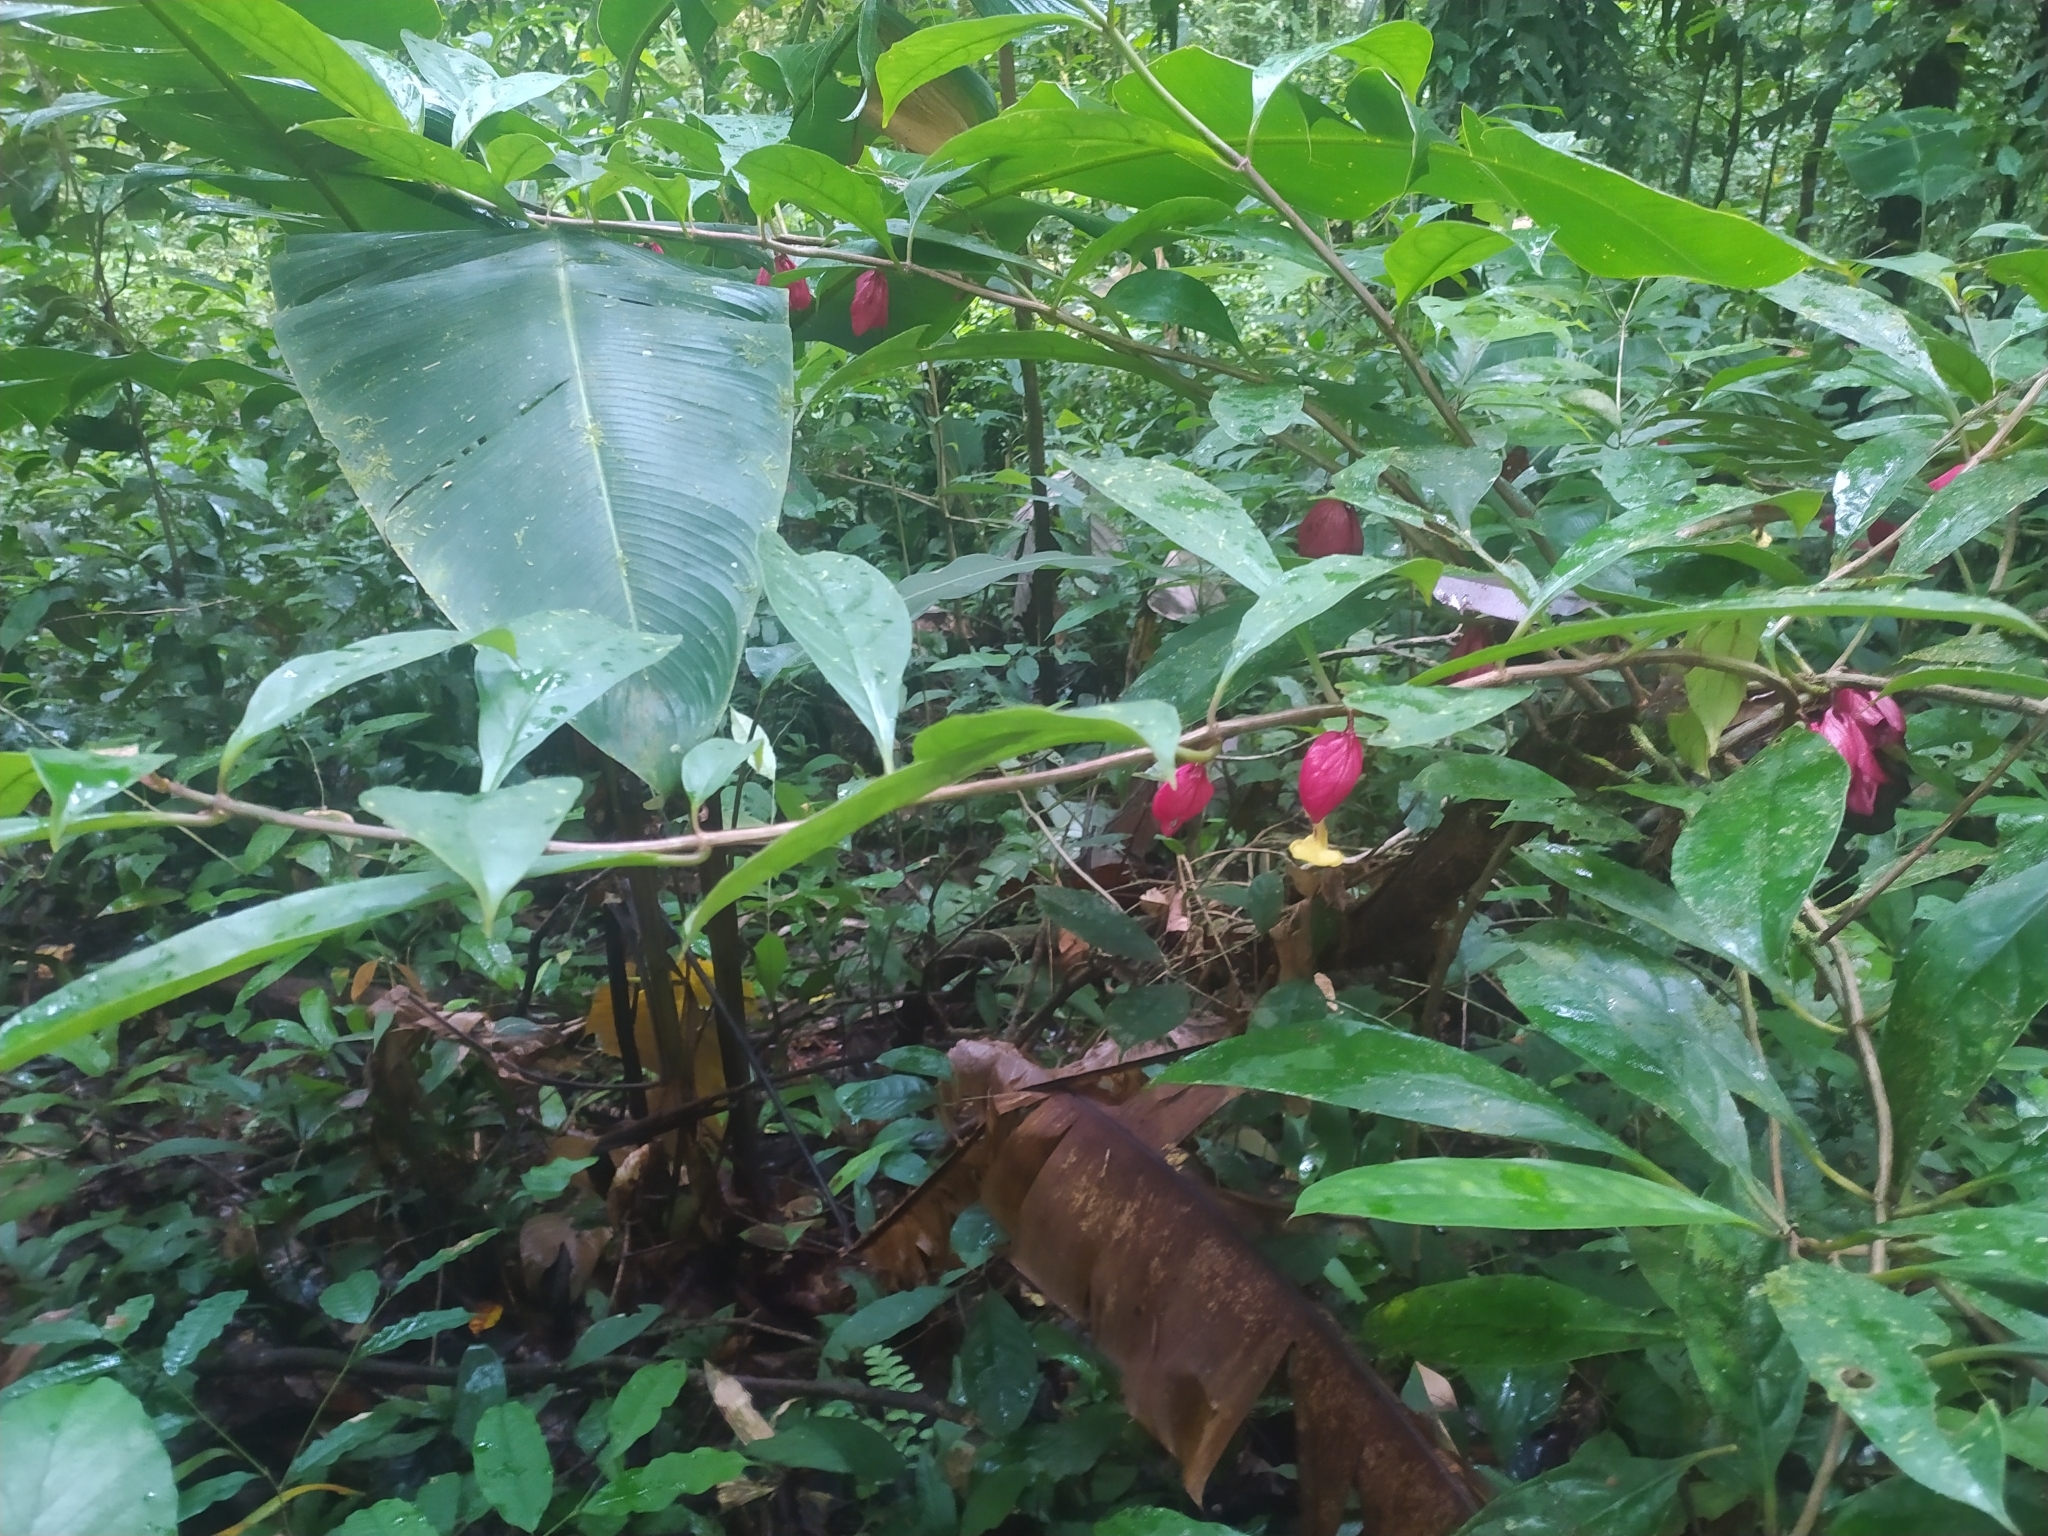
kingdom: Plantae
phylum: Tracheophyta
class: Magnoliopsida
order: Lamiales
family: Gesneriaceae
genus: Drymonia
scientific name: Drymonia coccinea
